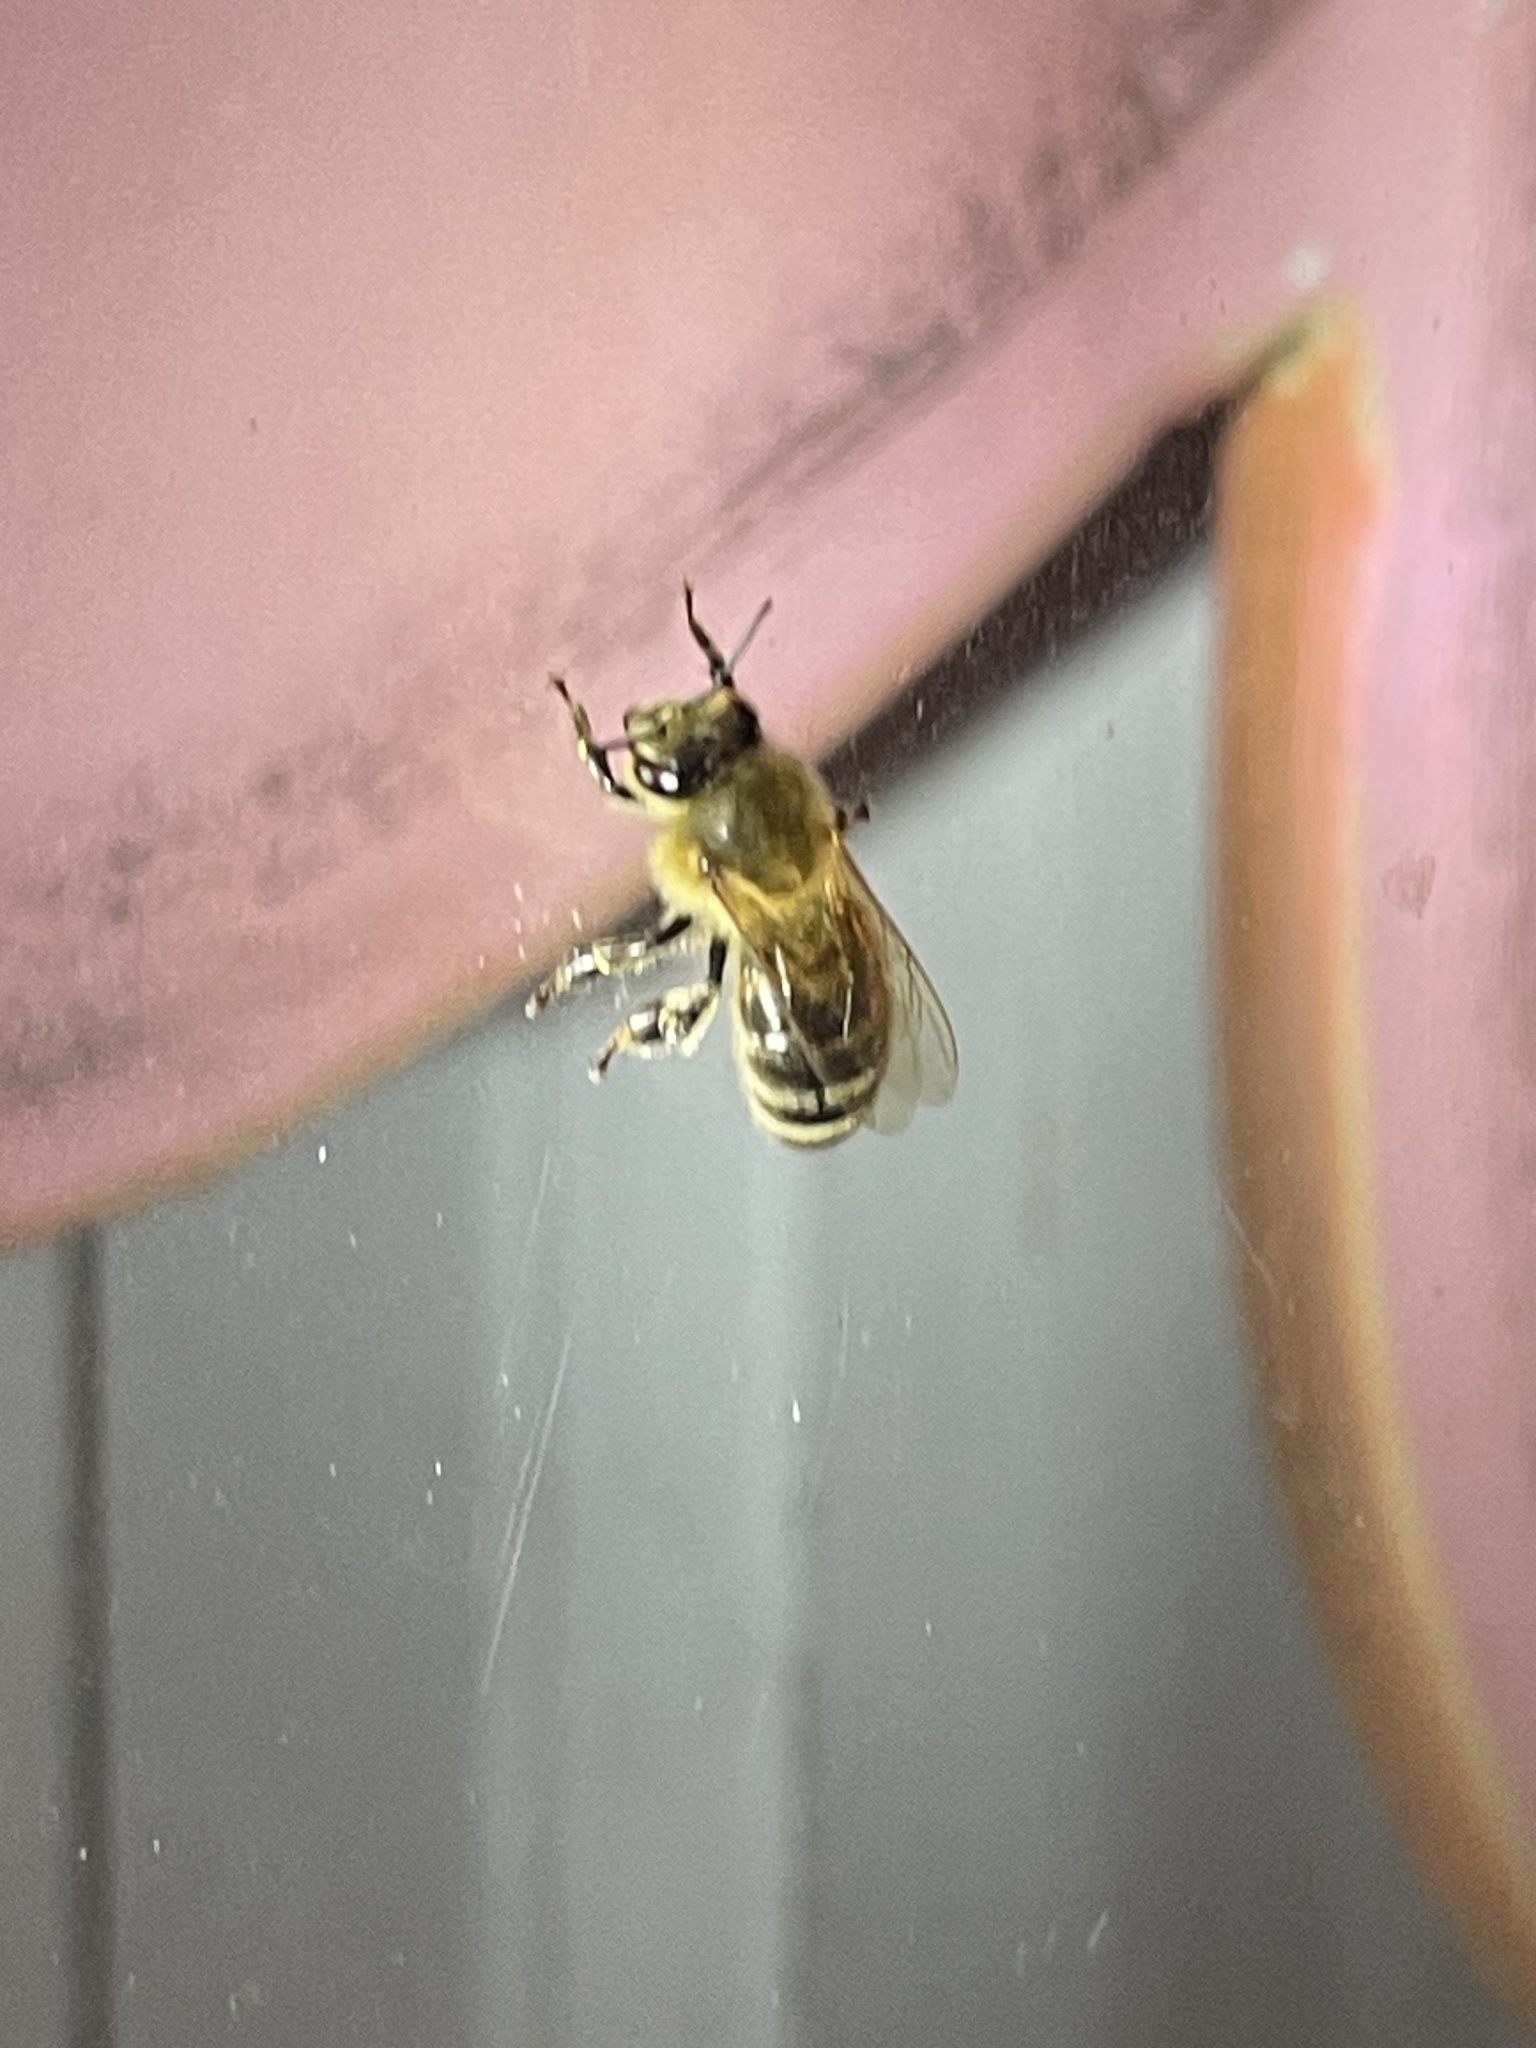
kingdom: Animalia
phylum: Arthropoda
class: Insecta
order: Hymenoptera
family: Apidae
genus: Apis
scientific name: Apis mellifera
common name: Honey bee
